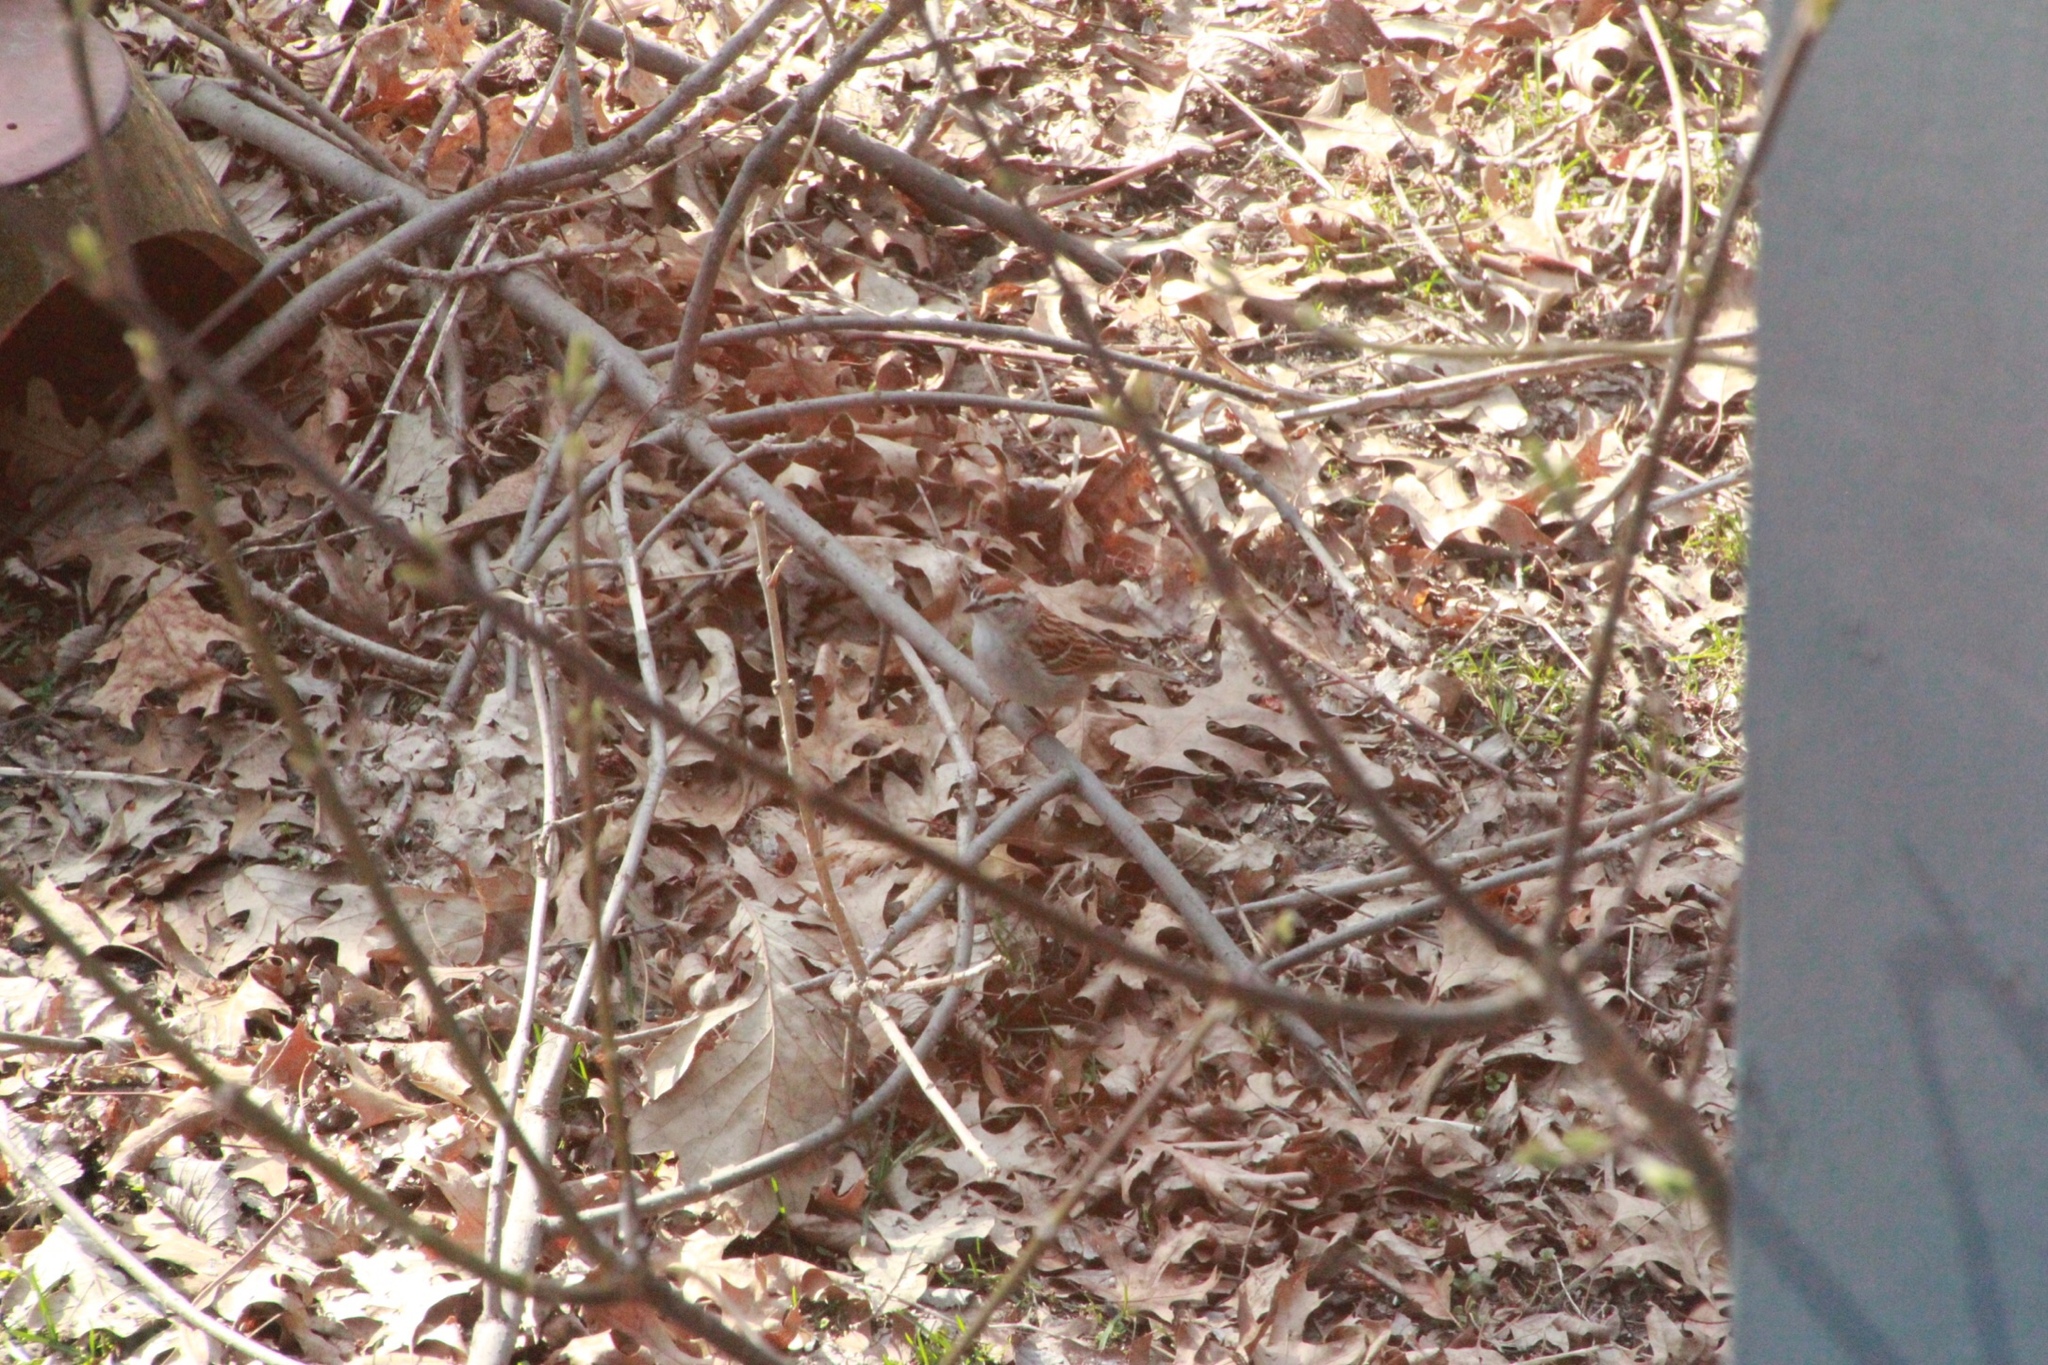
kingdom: Animalia
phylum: Chordata
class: Aves
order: Passeriformes
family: Passerellidae
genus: Spizella
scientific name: Spizella passerina
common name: Chipping sparrow
